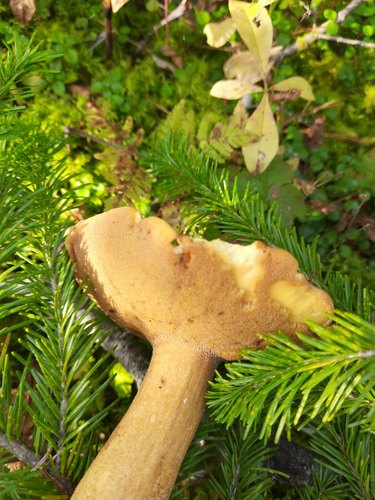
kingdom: Fungi
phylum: Basidiomycota
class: Agaricomycetes
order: Boletales
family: Suillaceae
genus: Suillus
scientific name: Suillus punctipes
